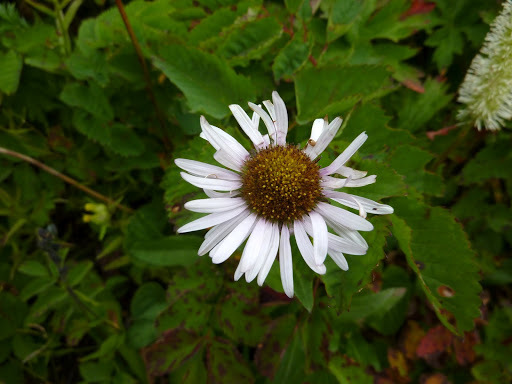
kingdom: Plantae
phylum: Tracheophyta
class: Magnoliopsida
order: Asterales
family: Asteraceae
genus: Eurybia
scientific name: Eurybia sibirica
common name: Arctic aster
